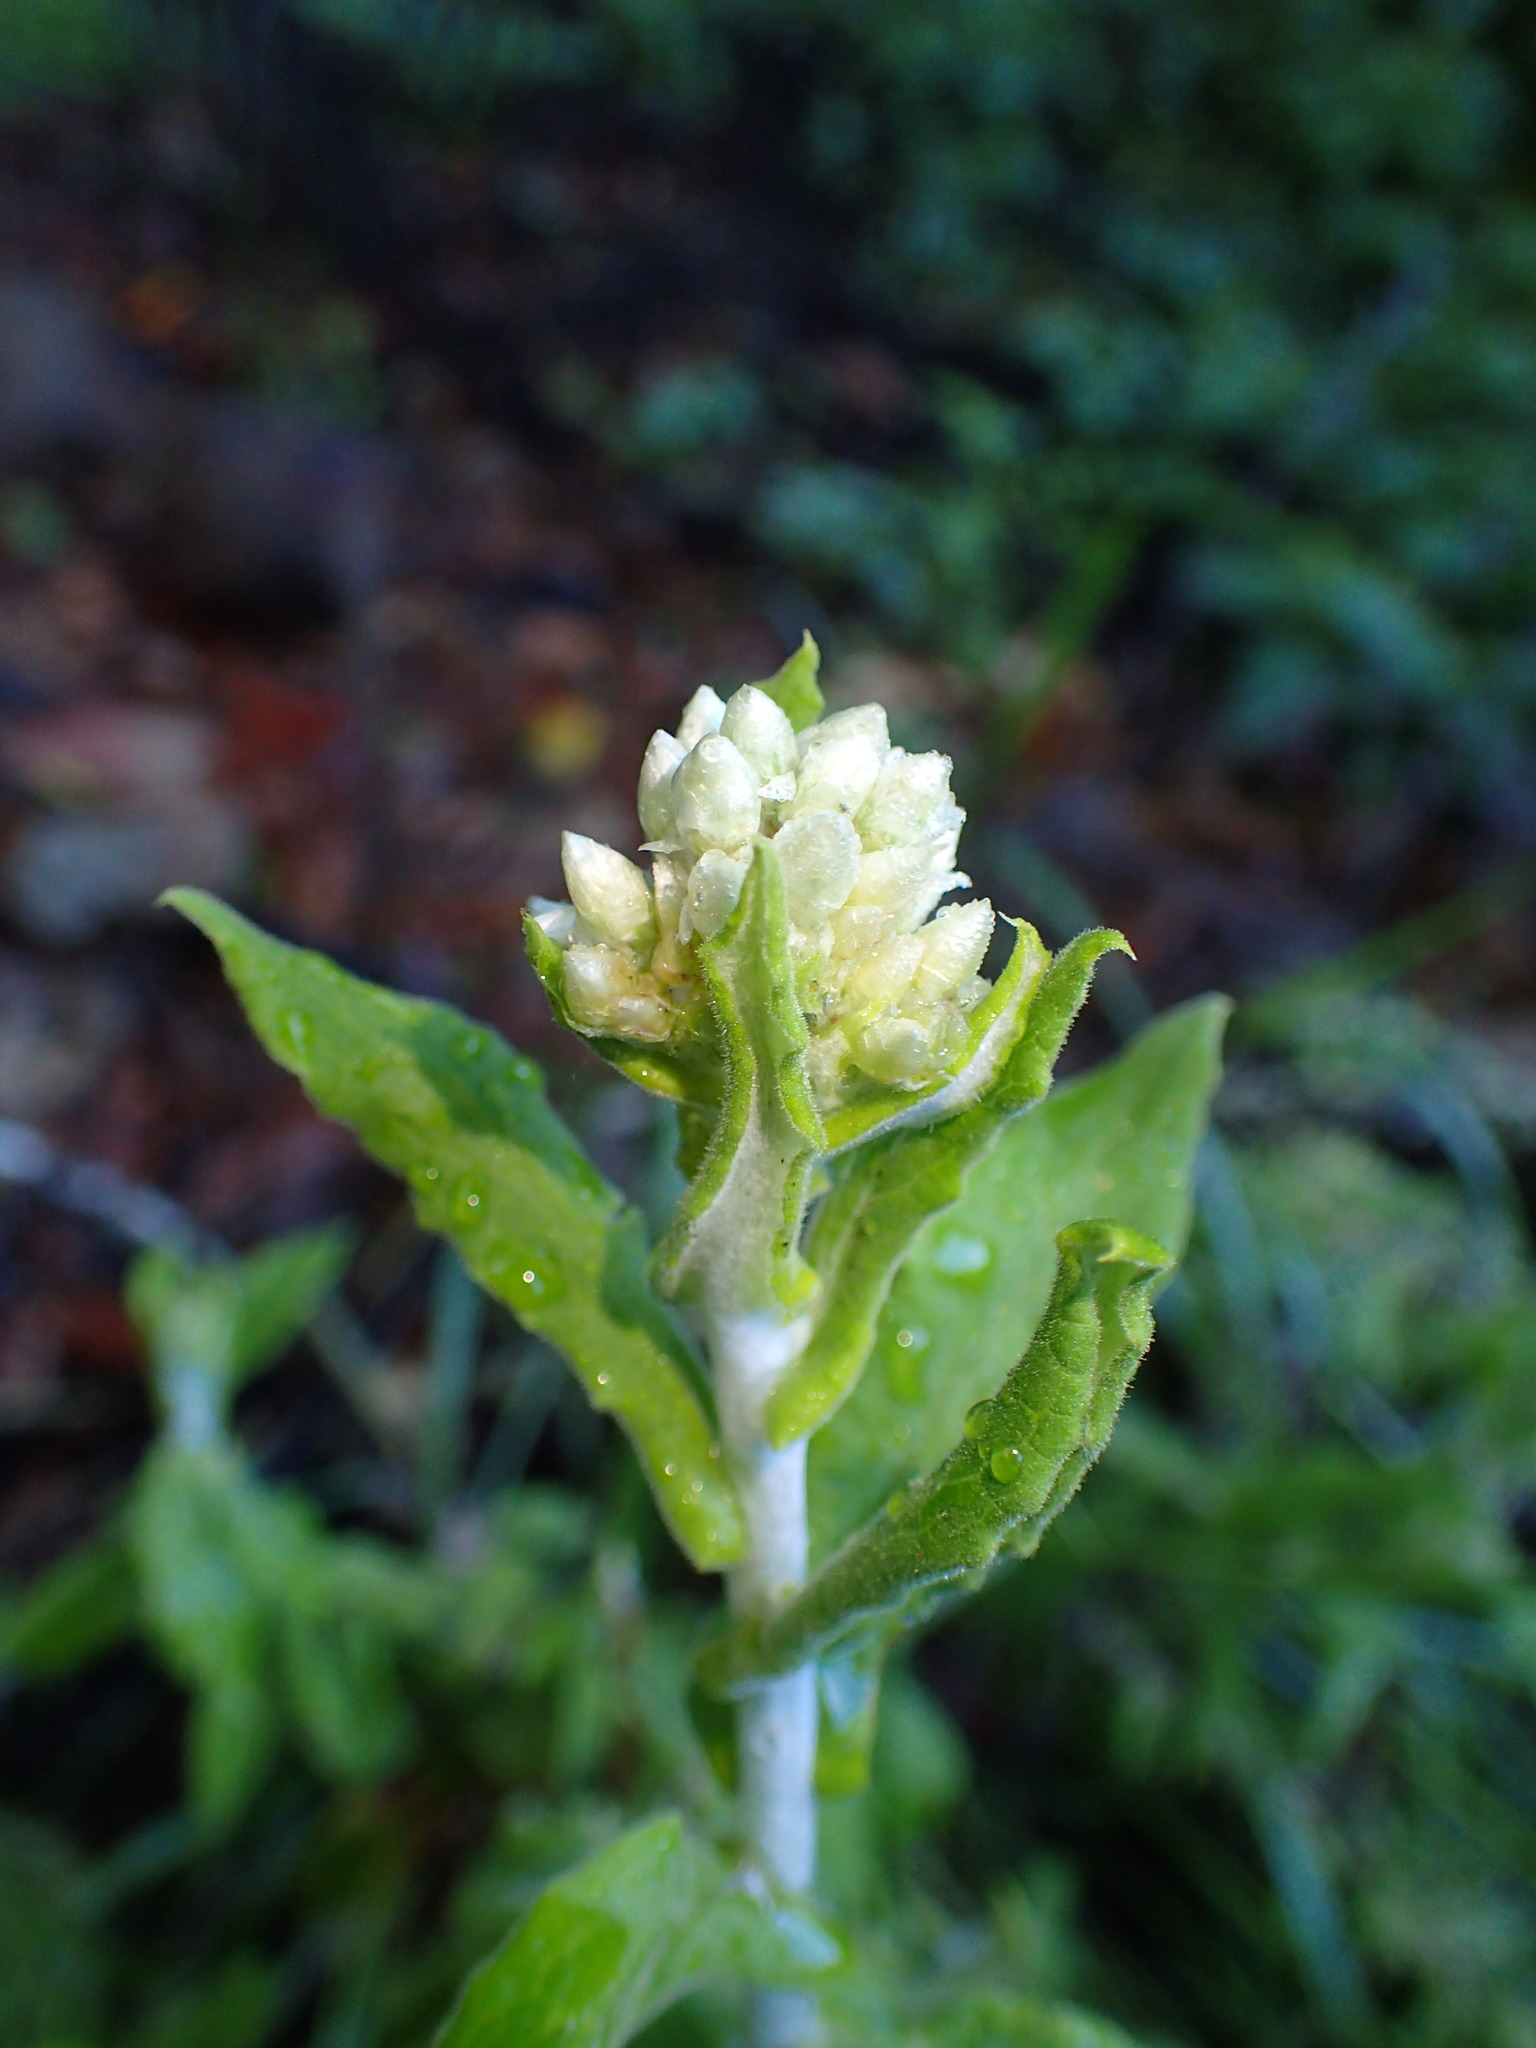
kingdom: Plantae
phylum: Tracheophyta
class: Magnoliopsida
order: Asterales
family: Asteraceae
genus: Pseudognaphalium
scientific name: Pseudognaphalium biolettii
